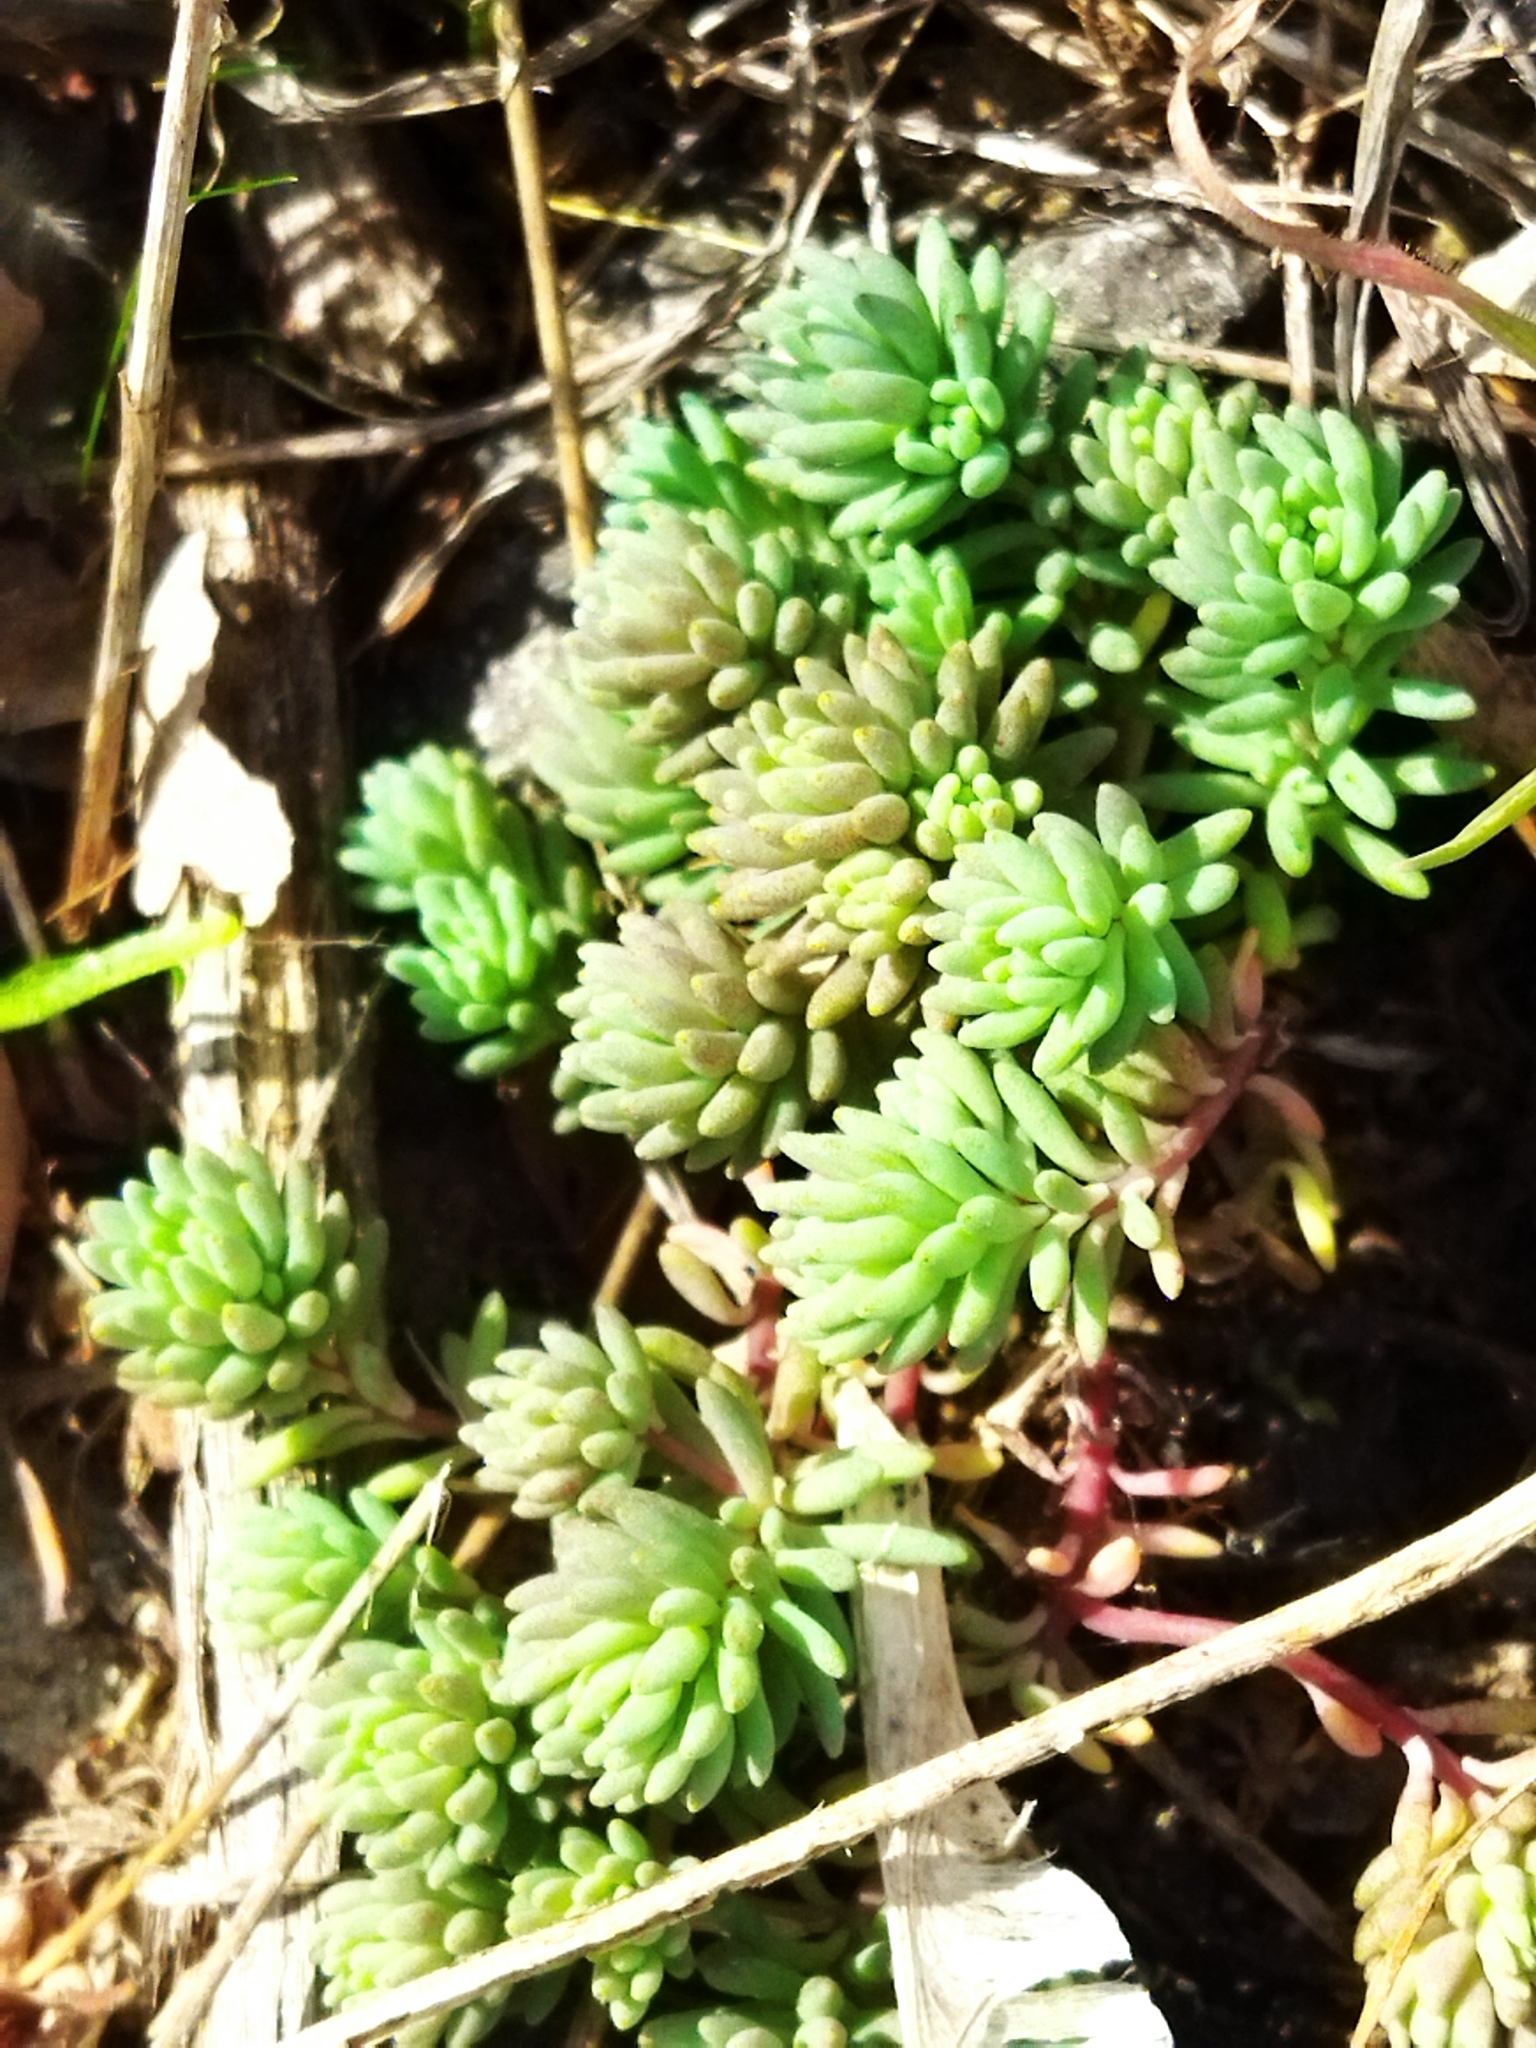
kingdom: Plantae
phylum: Tracheophyta
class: Magnoliopsida
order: Saxifragales
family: Crassulaceae
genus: Sedum
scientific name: Sedum hispanicum
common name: Spanish stonecrop
